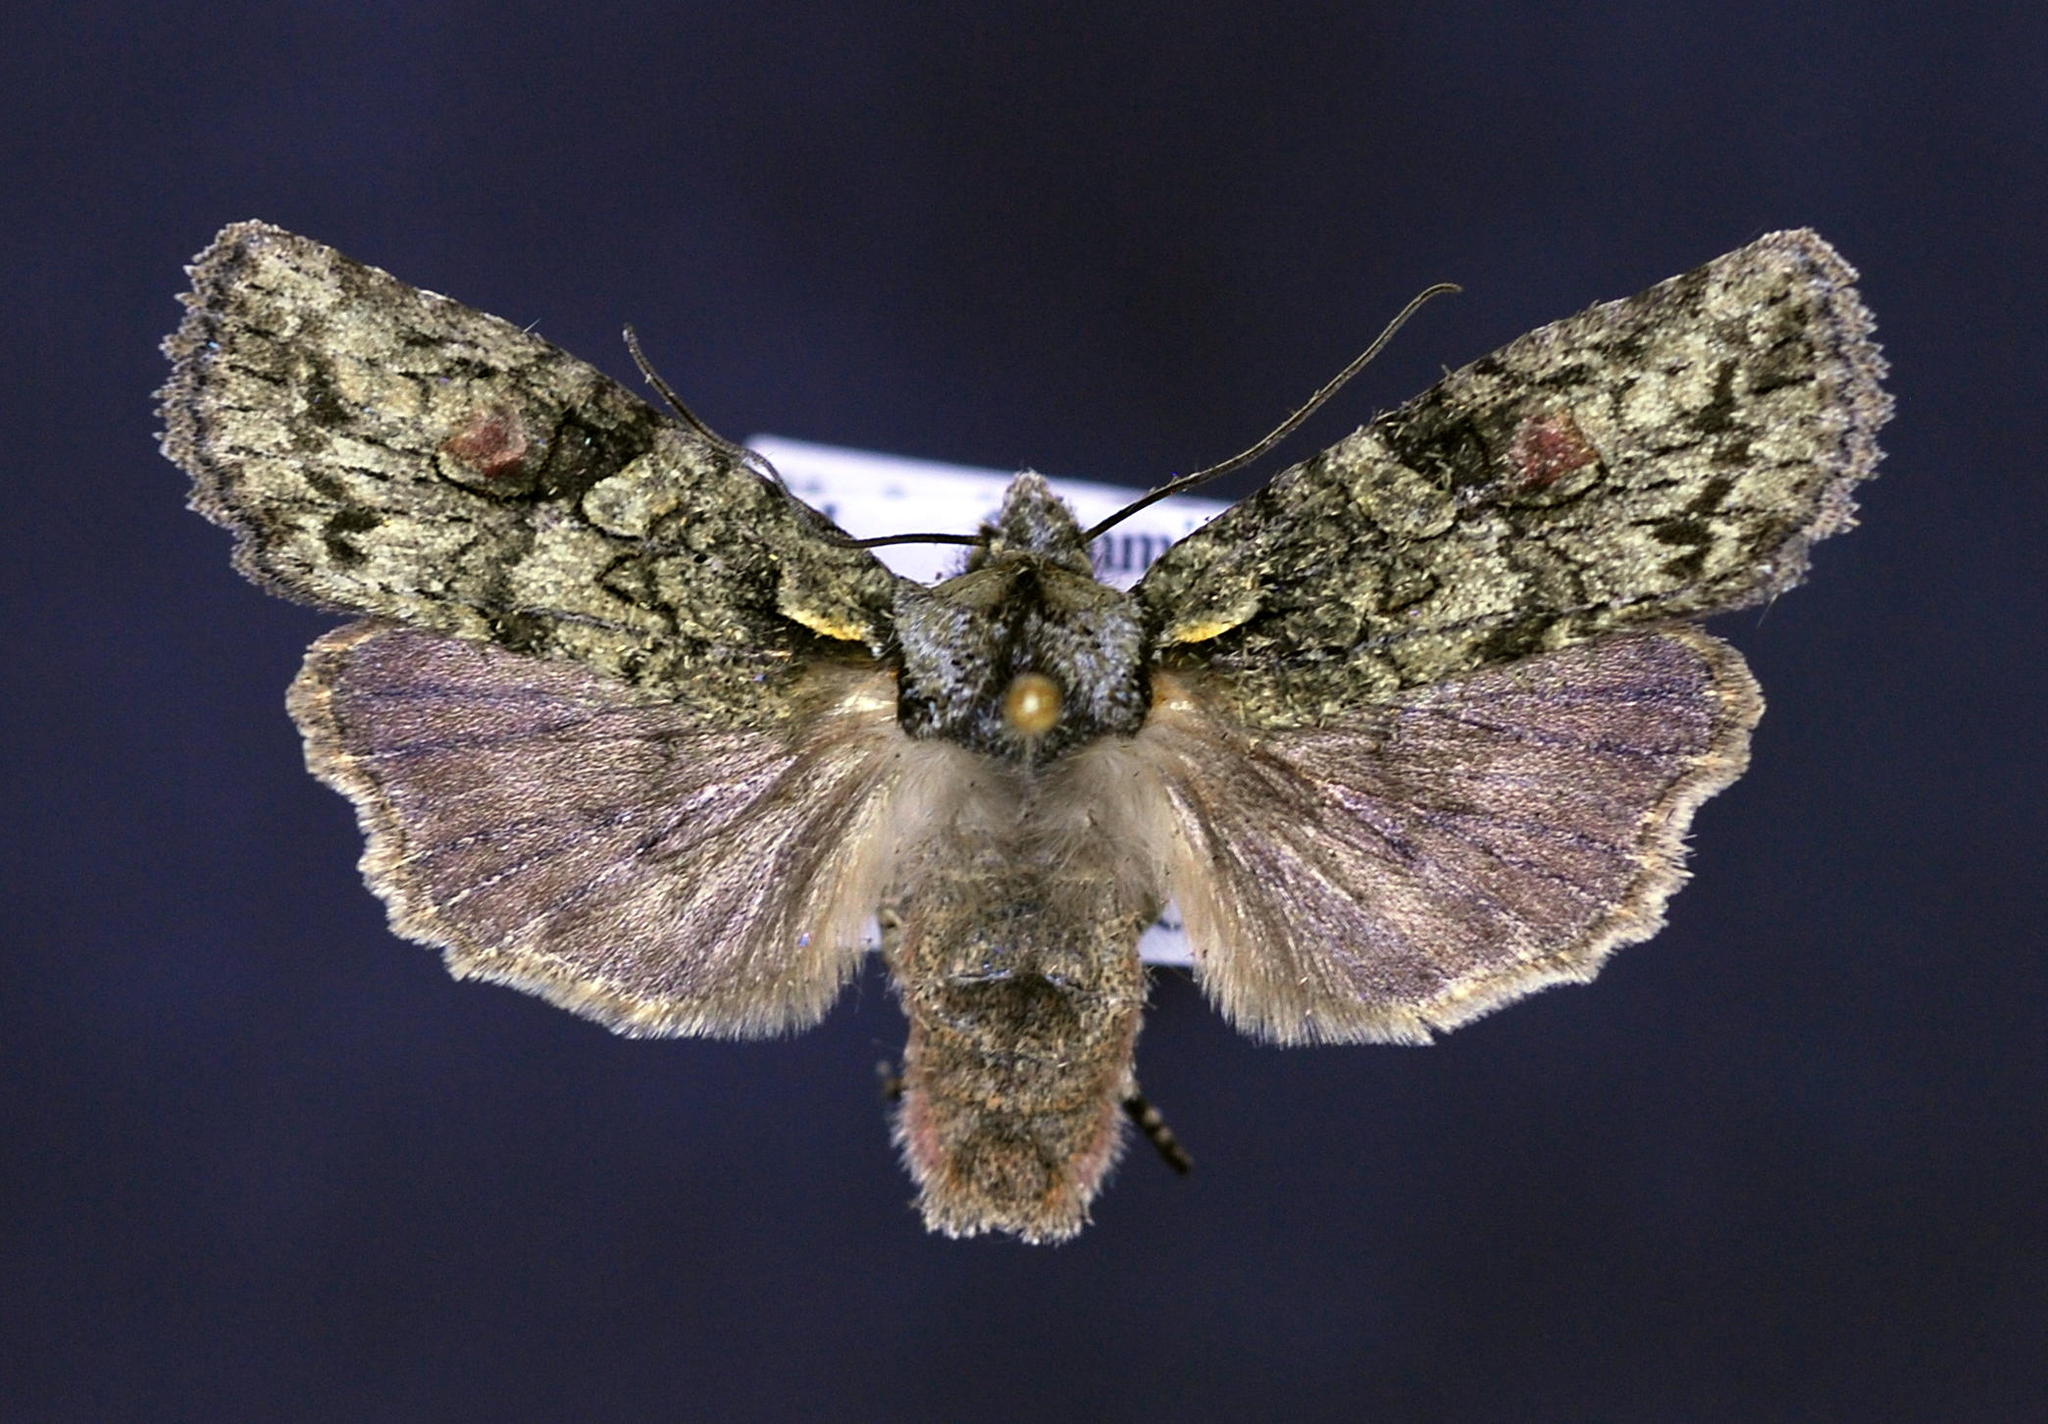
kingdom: Animalia
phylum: Arthropoda
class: Insecta
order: Lepidoptera
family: Noctuidae
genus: Lithophane
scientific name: Lithophane scottae
